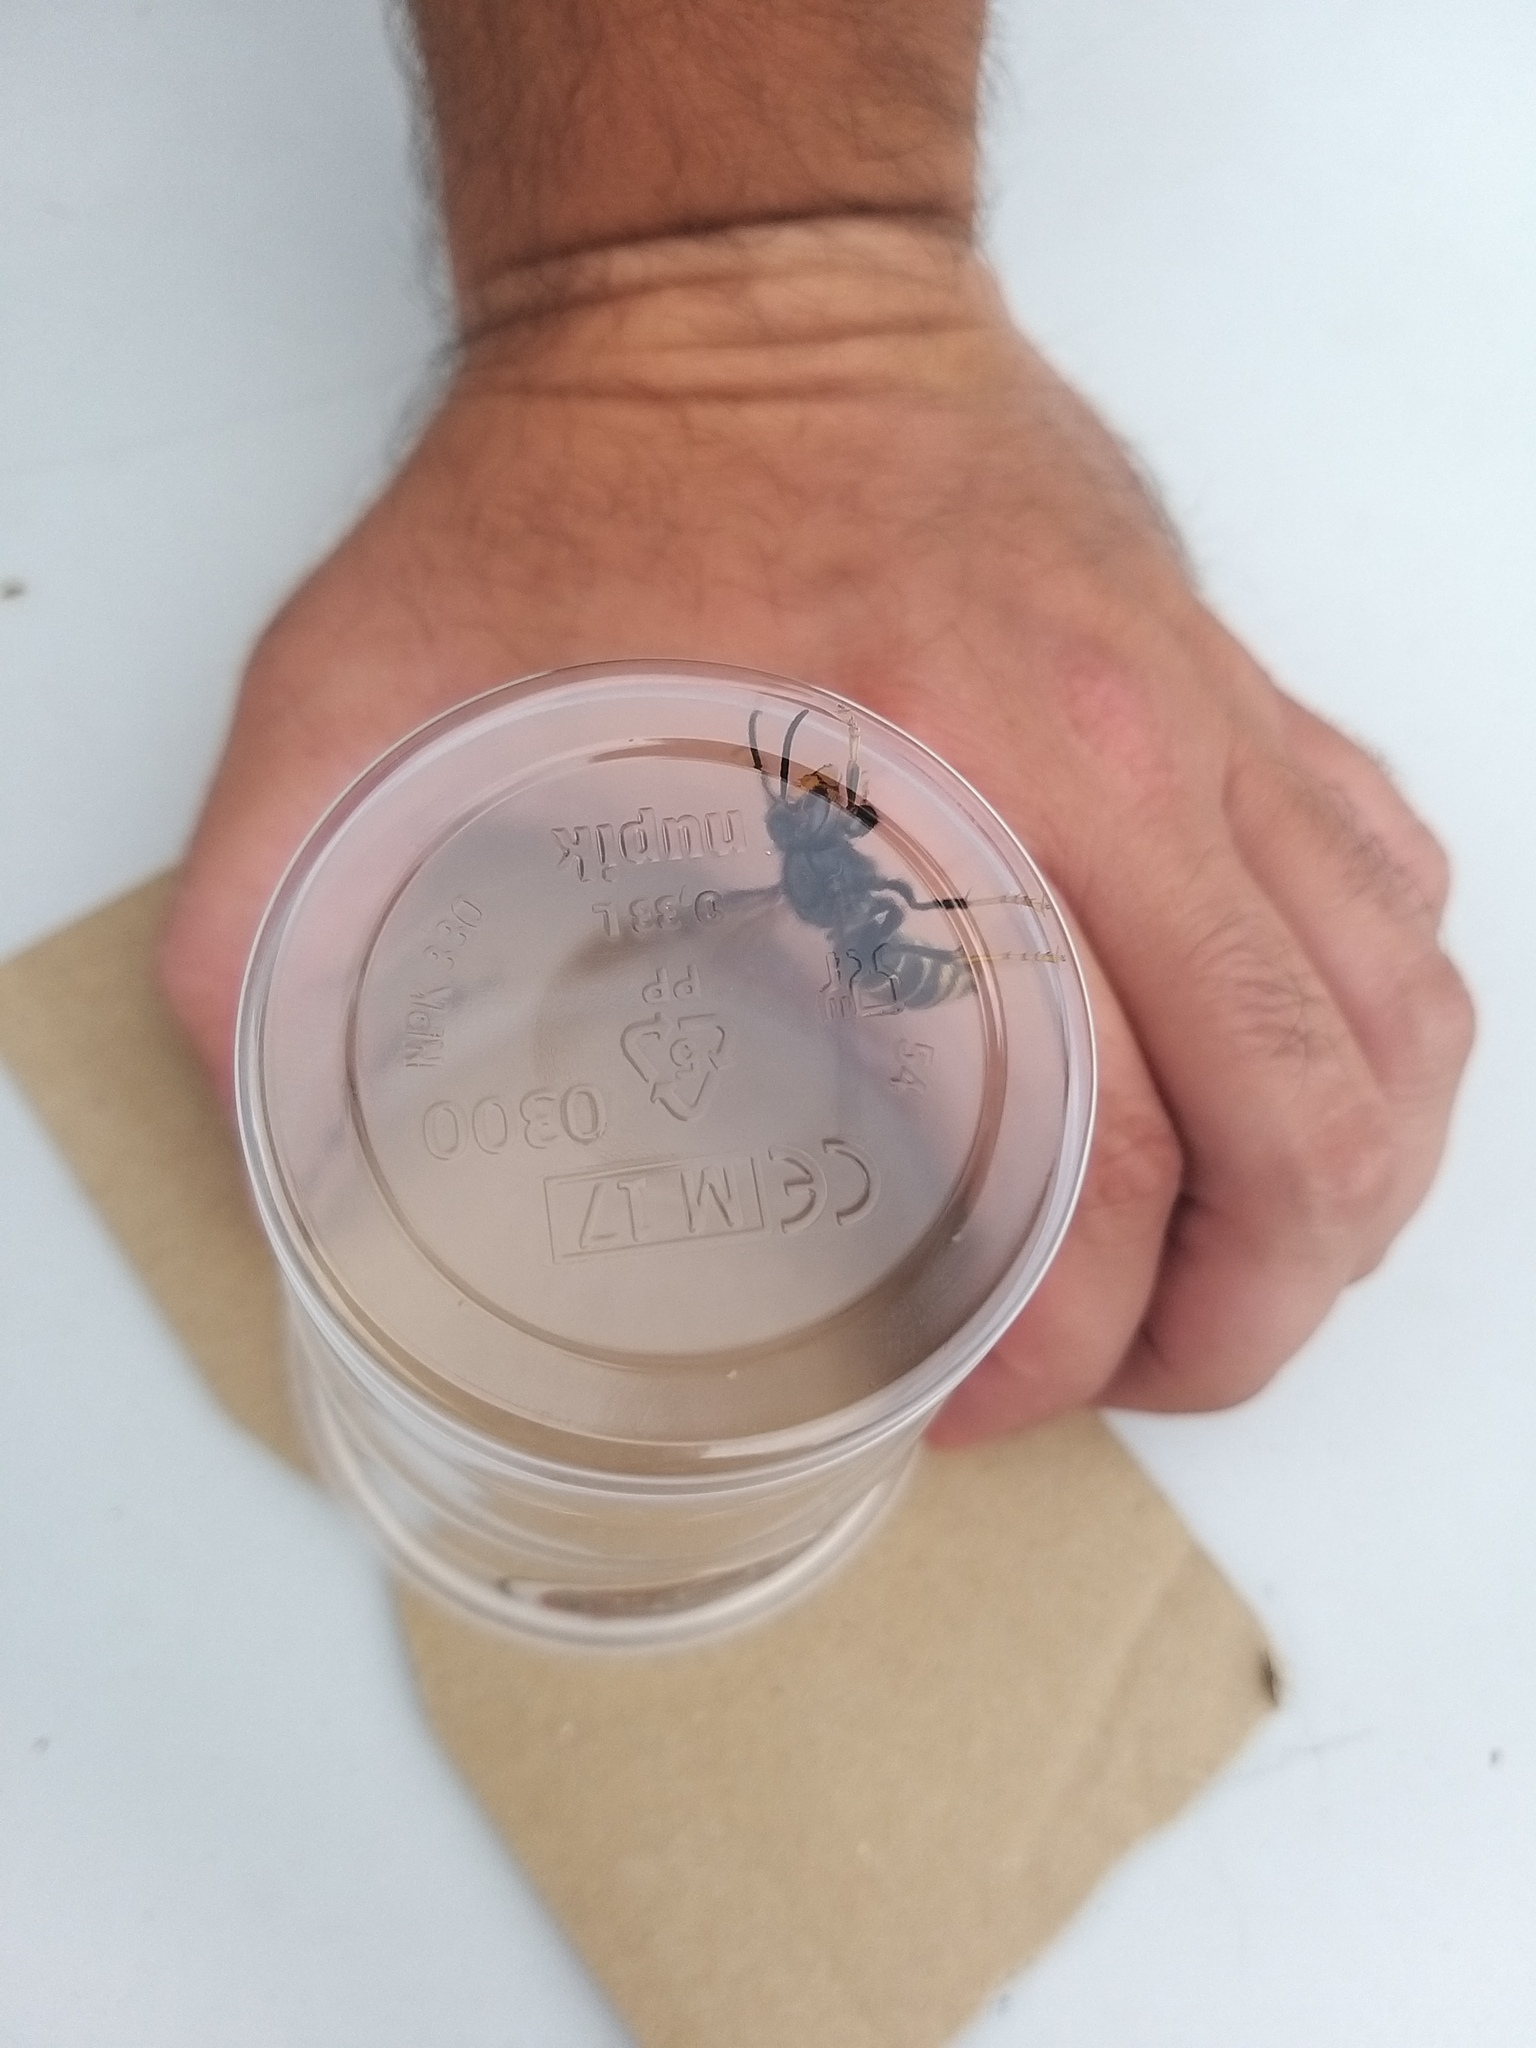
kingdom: Animalia
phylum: Arthropoda
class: Insecta
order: Hymenoptera
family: Vespidae
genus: Vespa
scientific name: Vespa velutina
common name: Asian hornet
